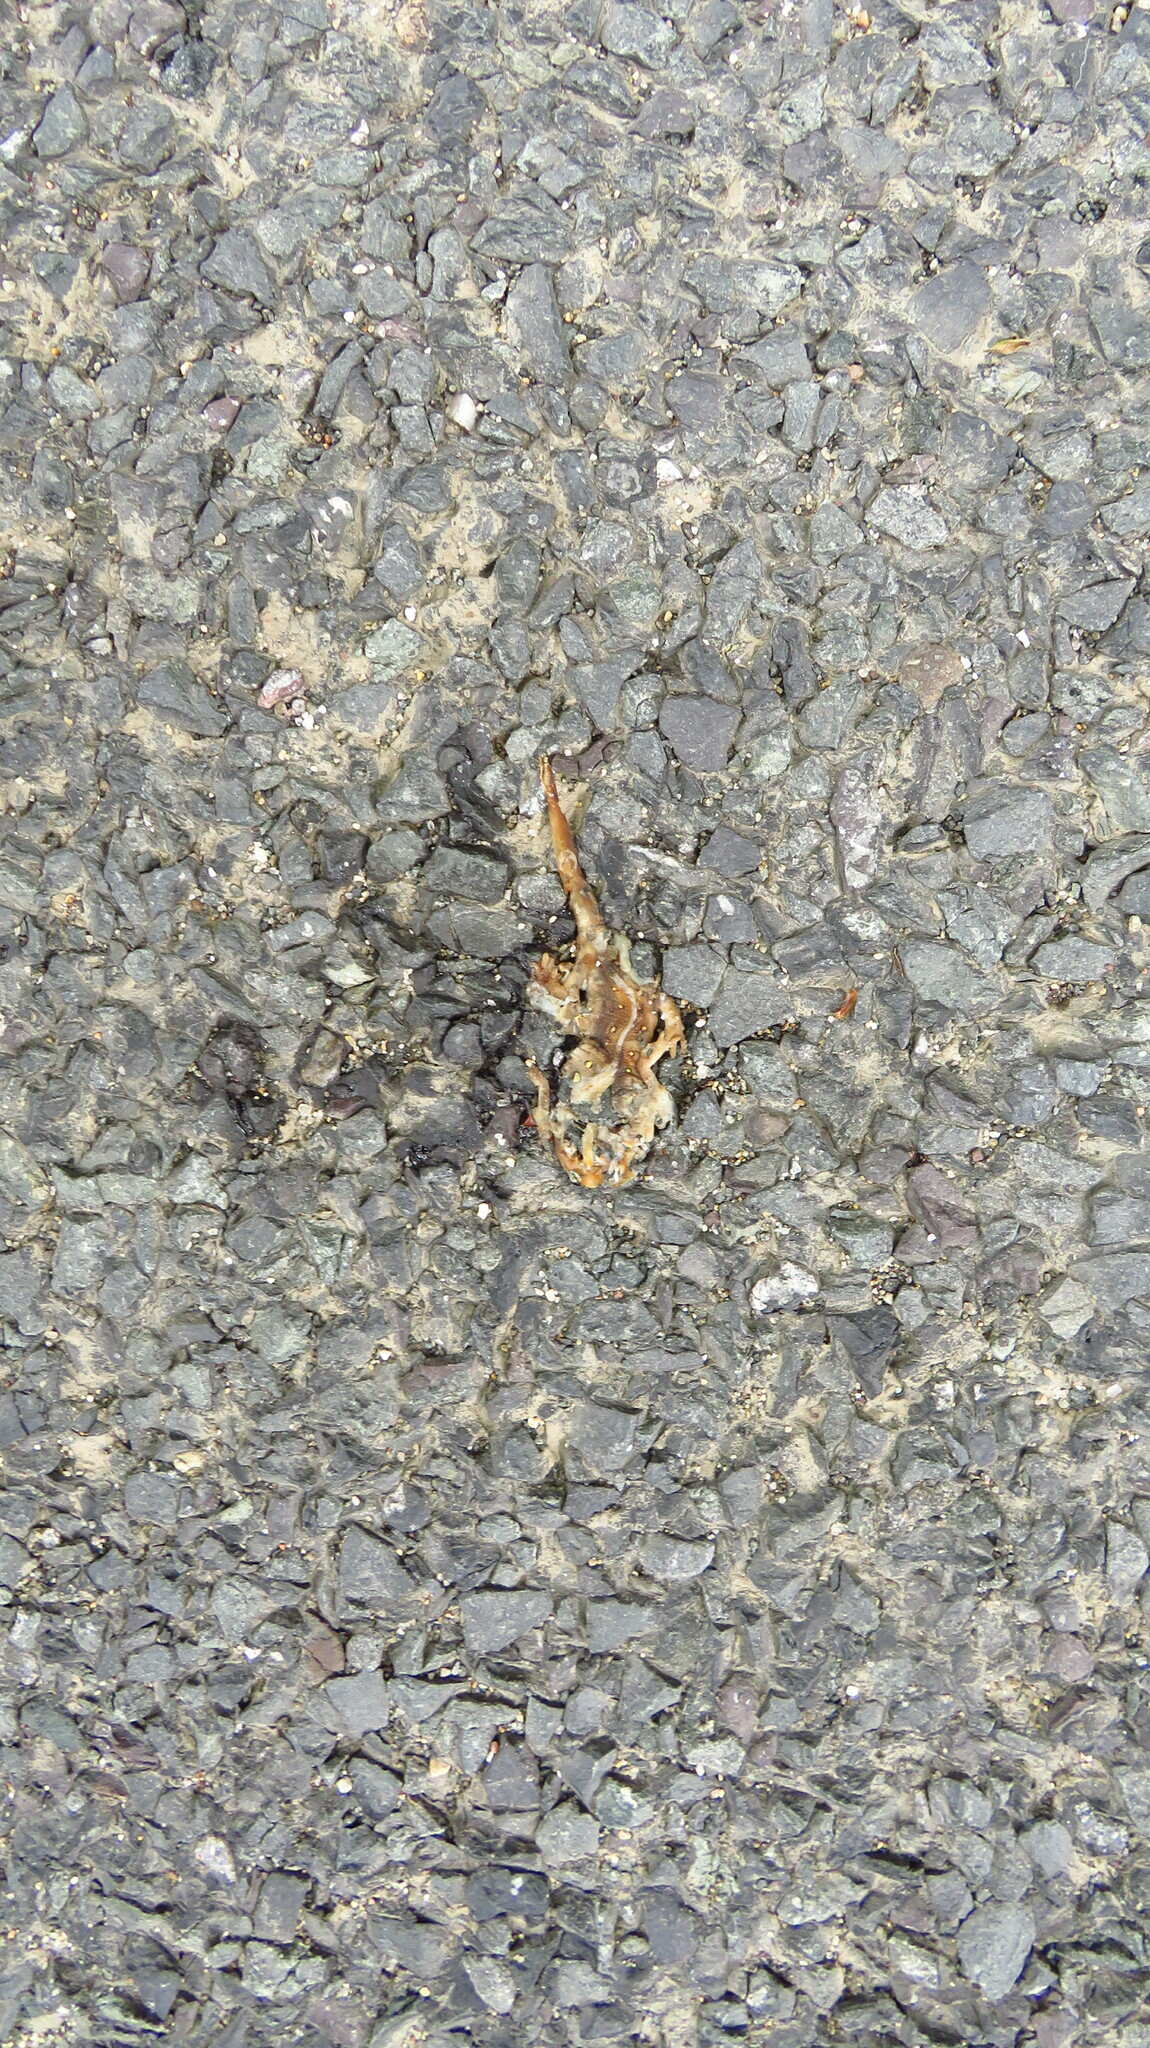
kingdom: Animalia
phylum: Chordata
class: Amphibia
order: Caudata
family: Salamandridae
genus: Notophthalmus
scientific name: Notophthalmus viridescens
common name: Eastern newt
